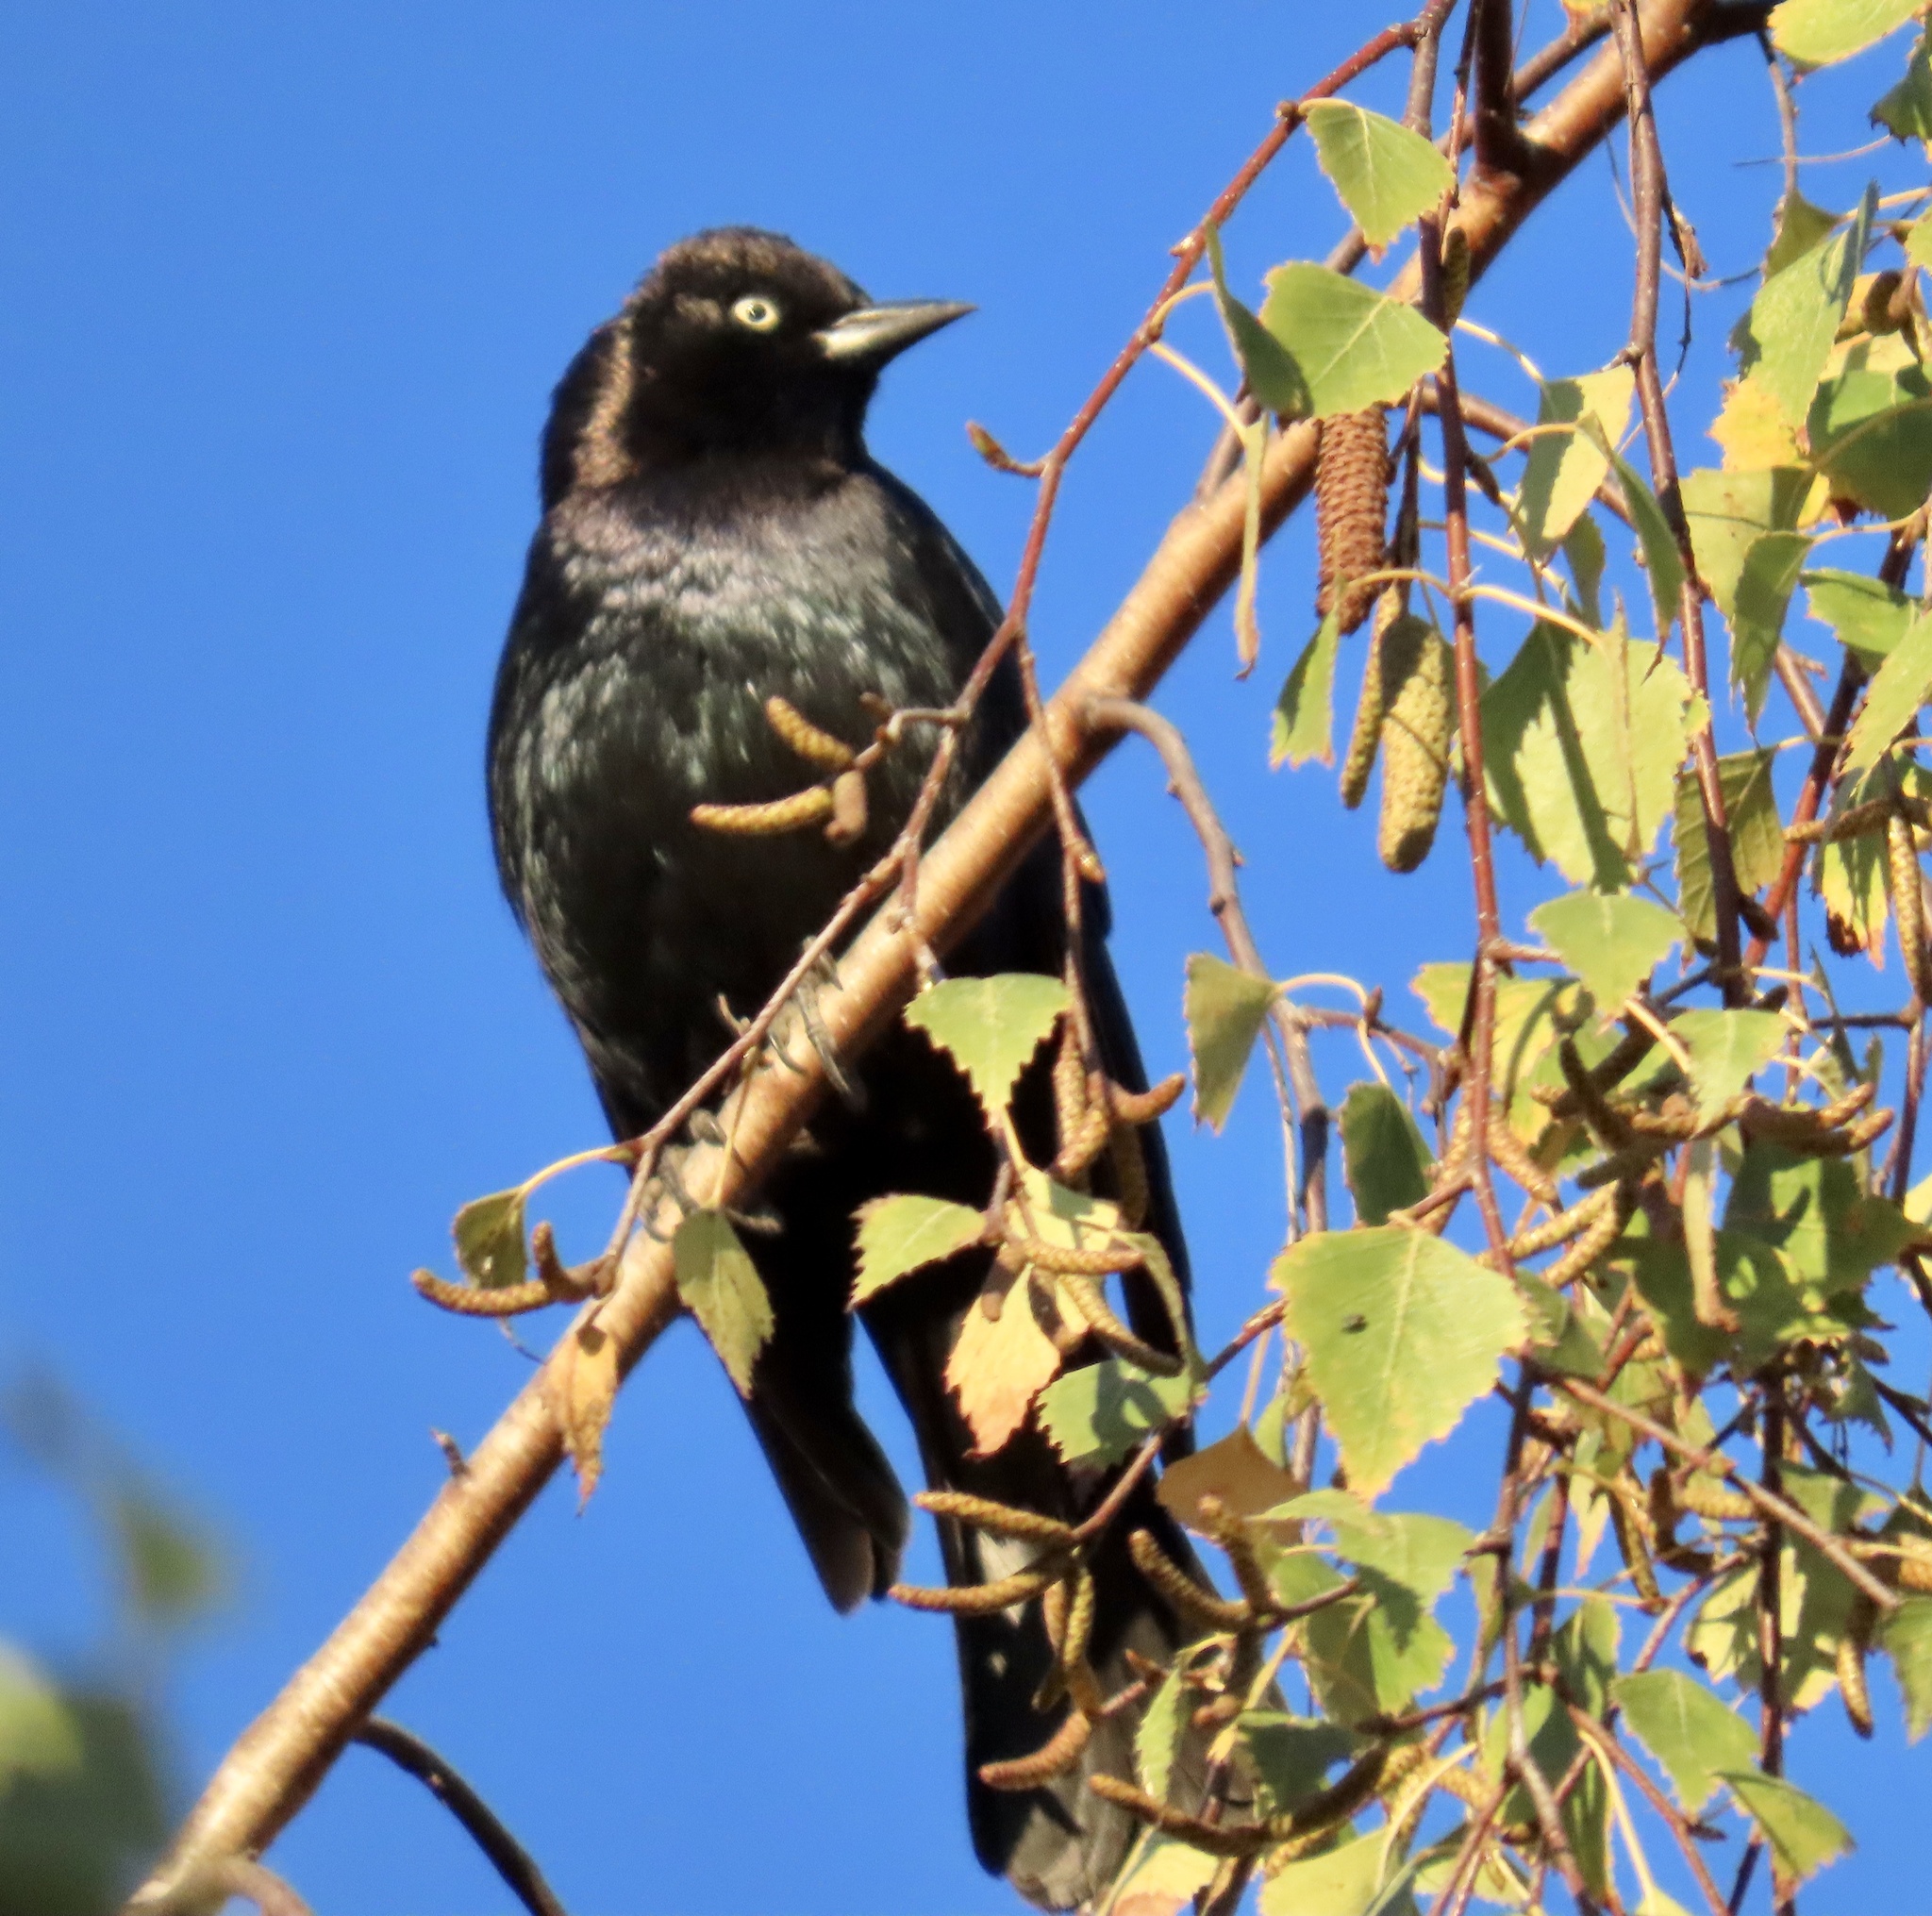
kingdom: Animalia
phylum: Chordata
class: Aves
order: Passeriformes
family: Icteridae
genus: Euphagus
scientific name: Euphagus cyanocephalus
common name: Brewer's blackbird
